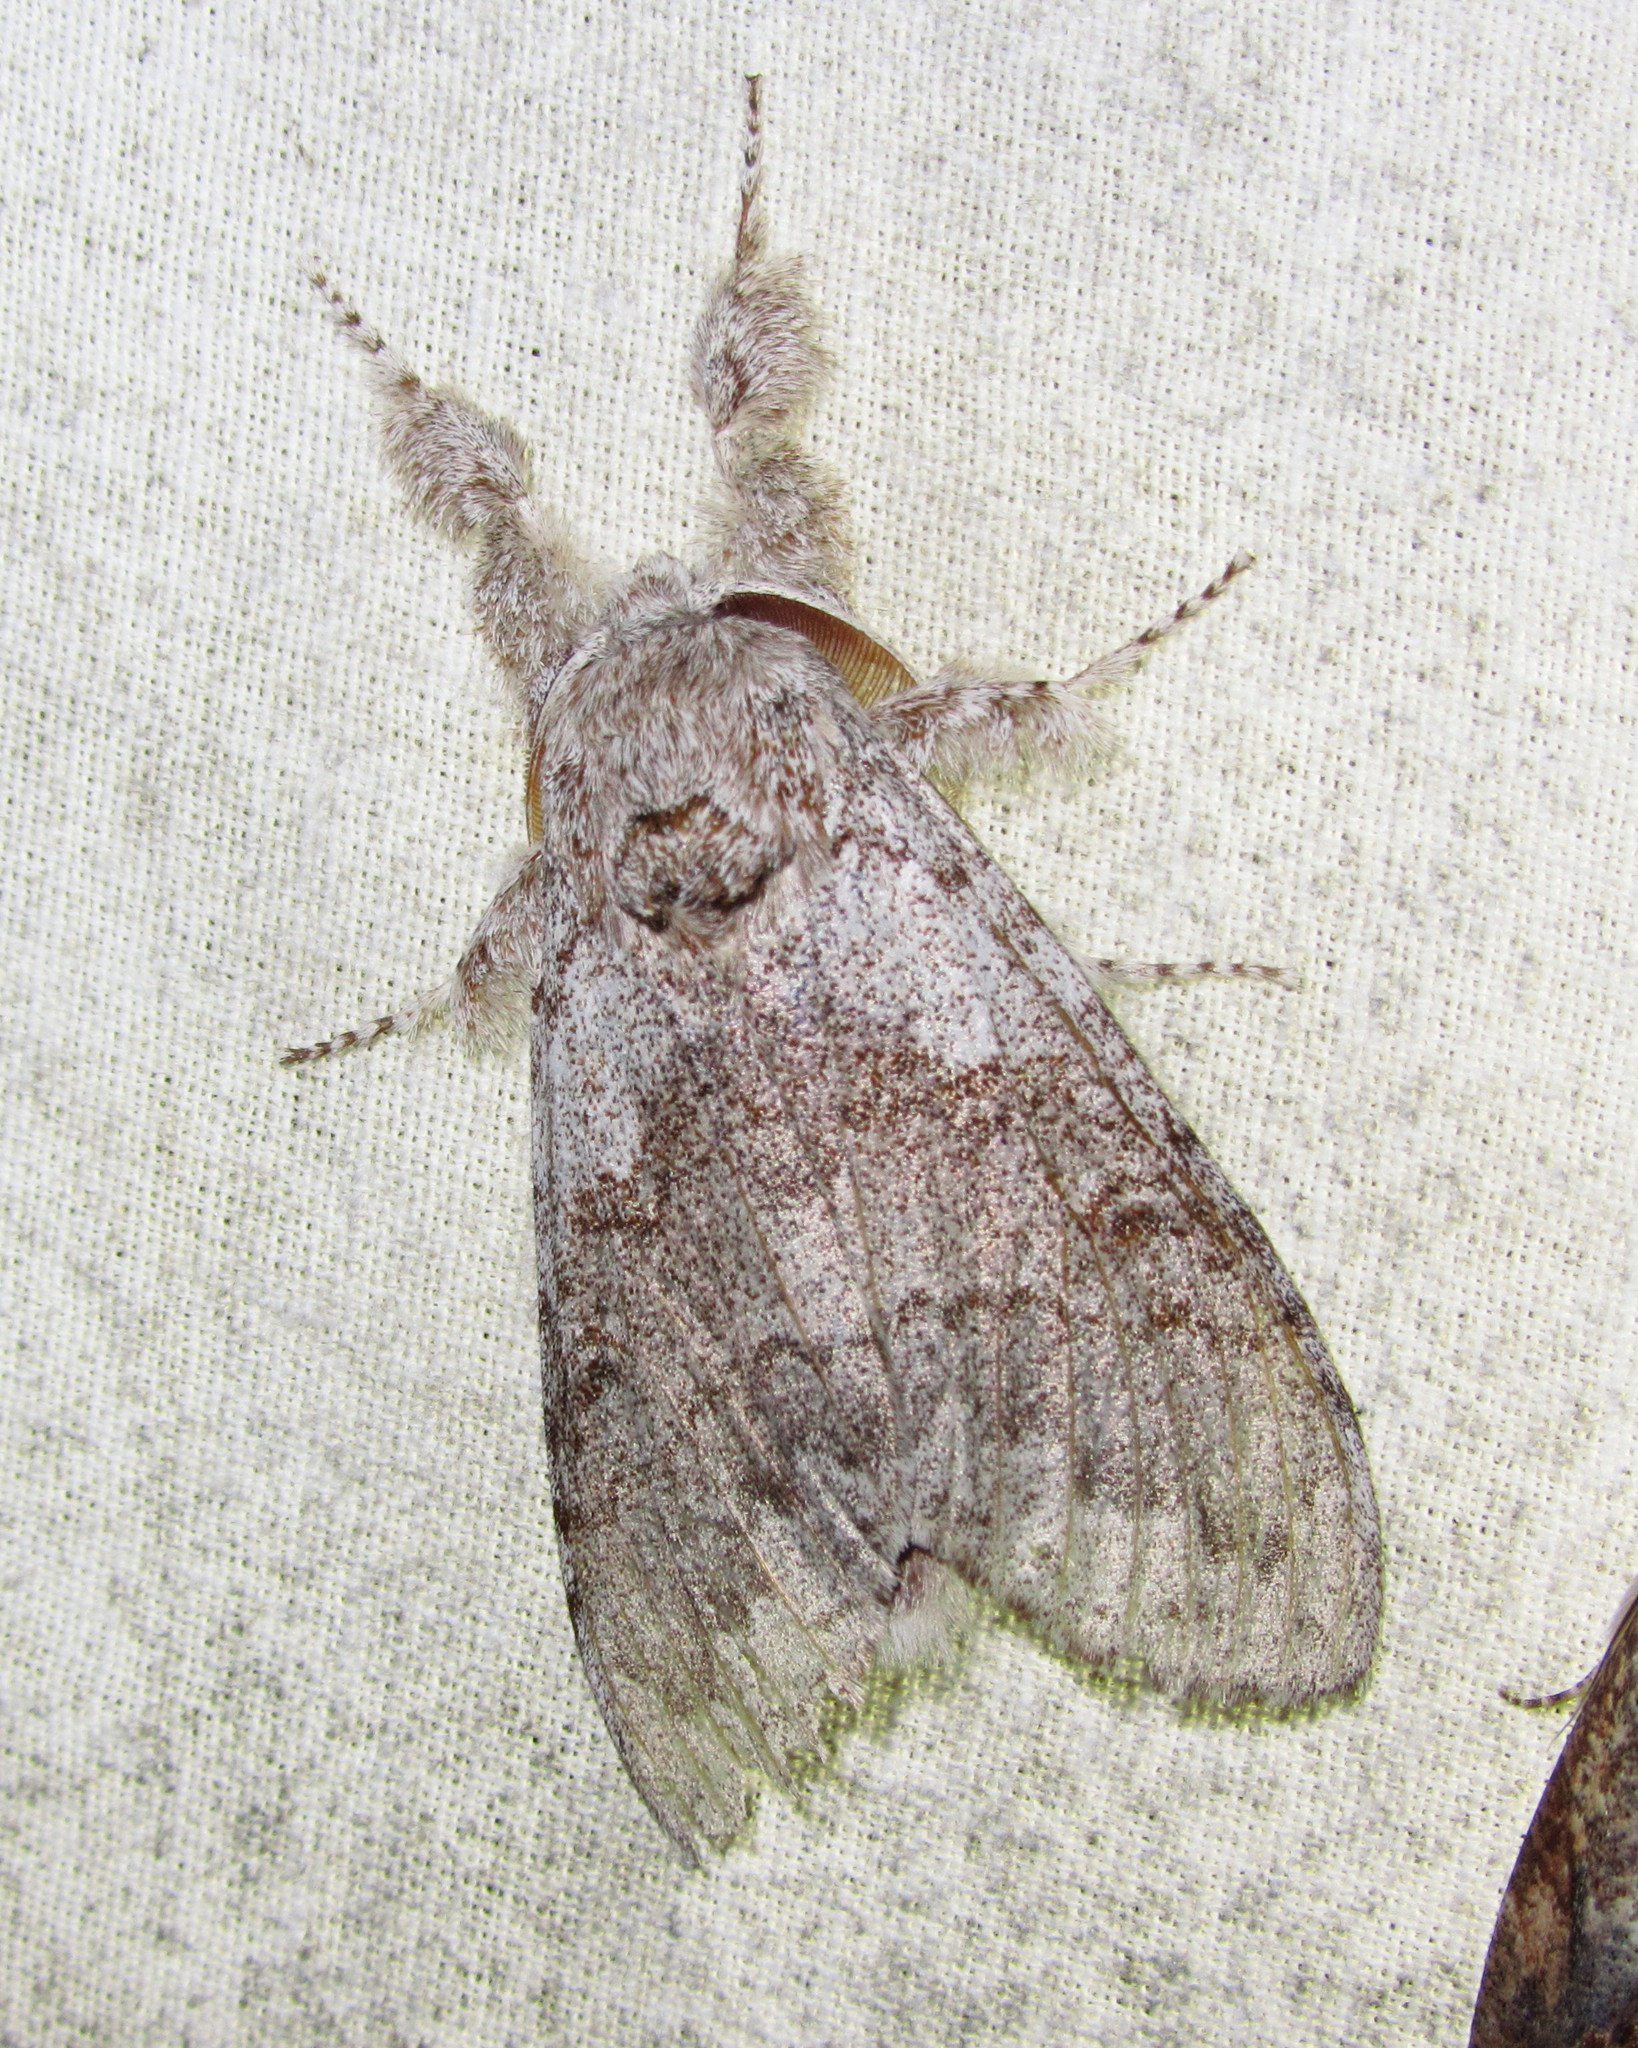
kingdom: Animalia
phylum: Arthropoda
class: Insecta
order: Lepidoptera
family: Erebidae
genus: Calliteara
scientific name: Calliteara grotei
